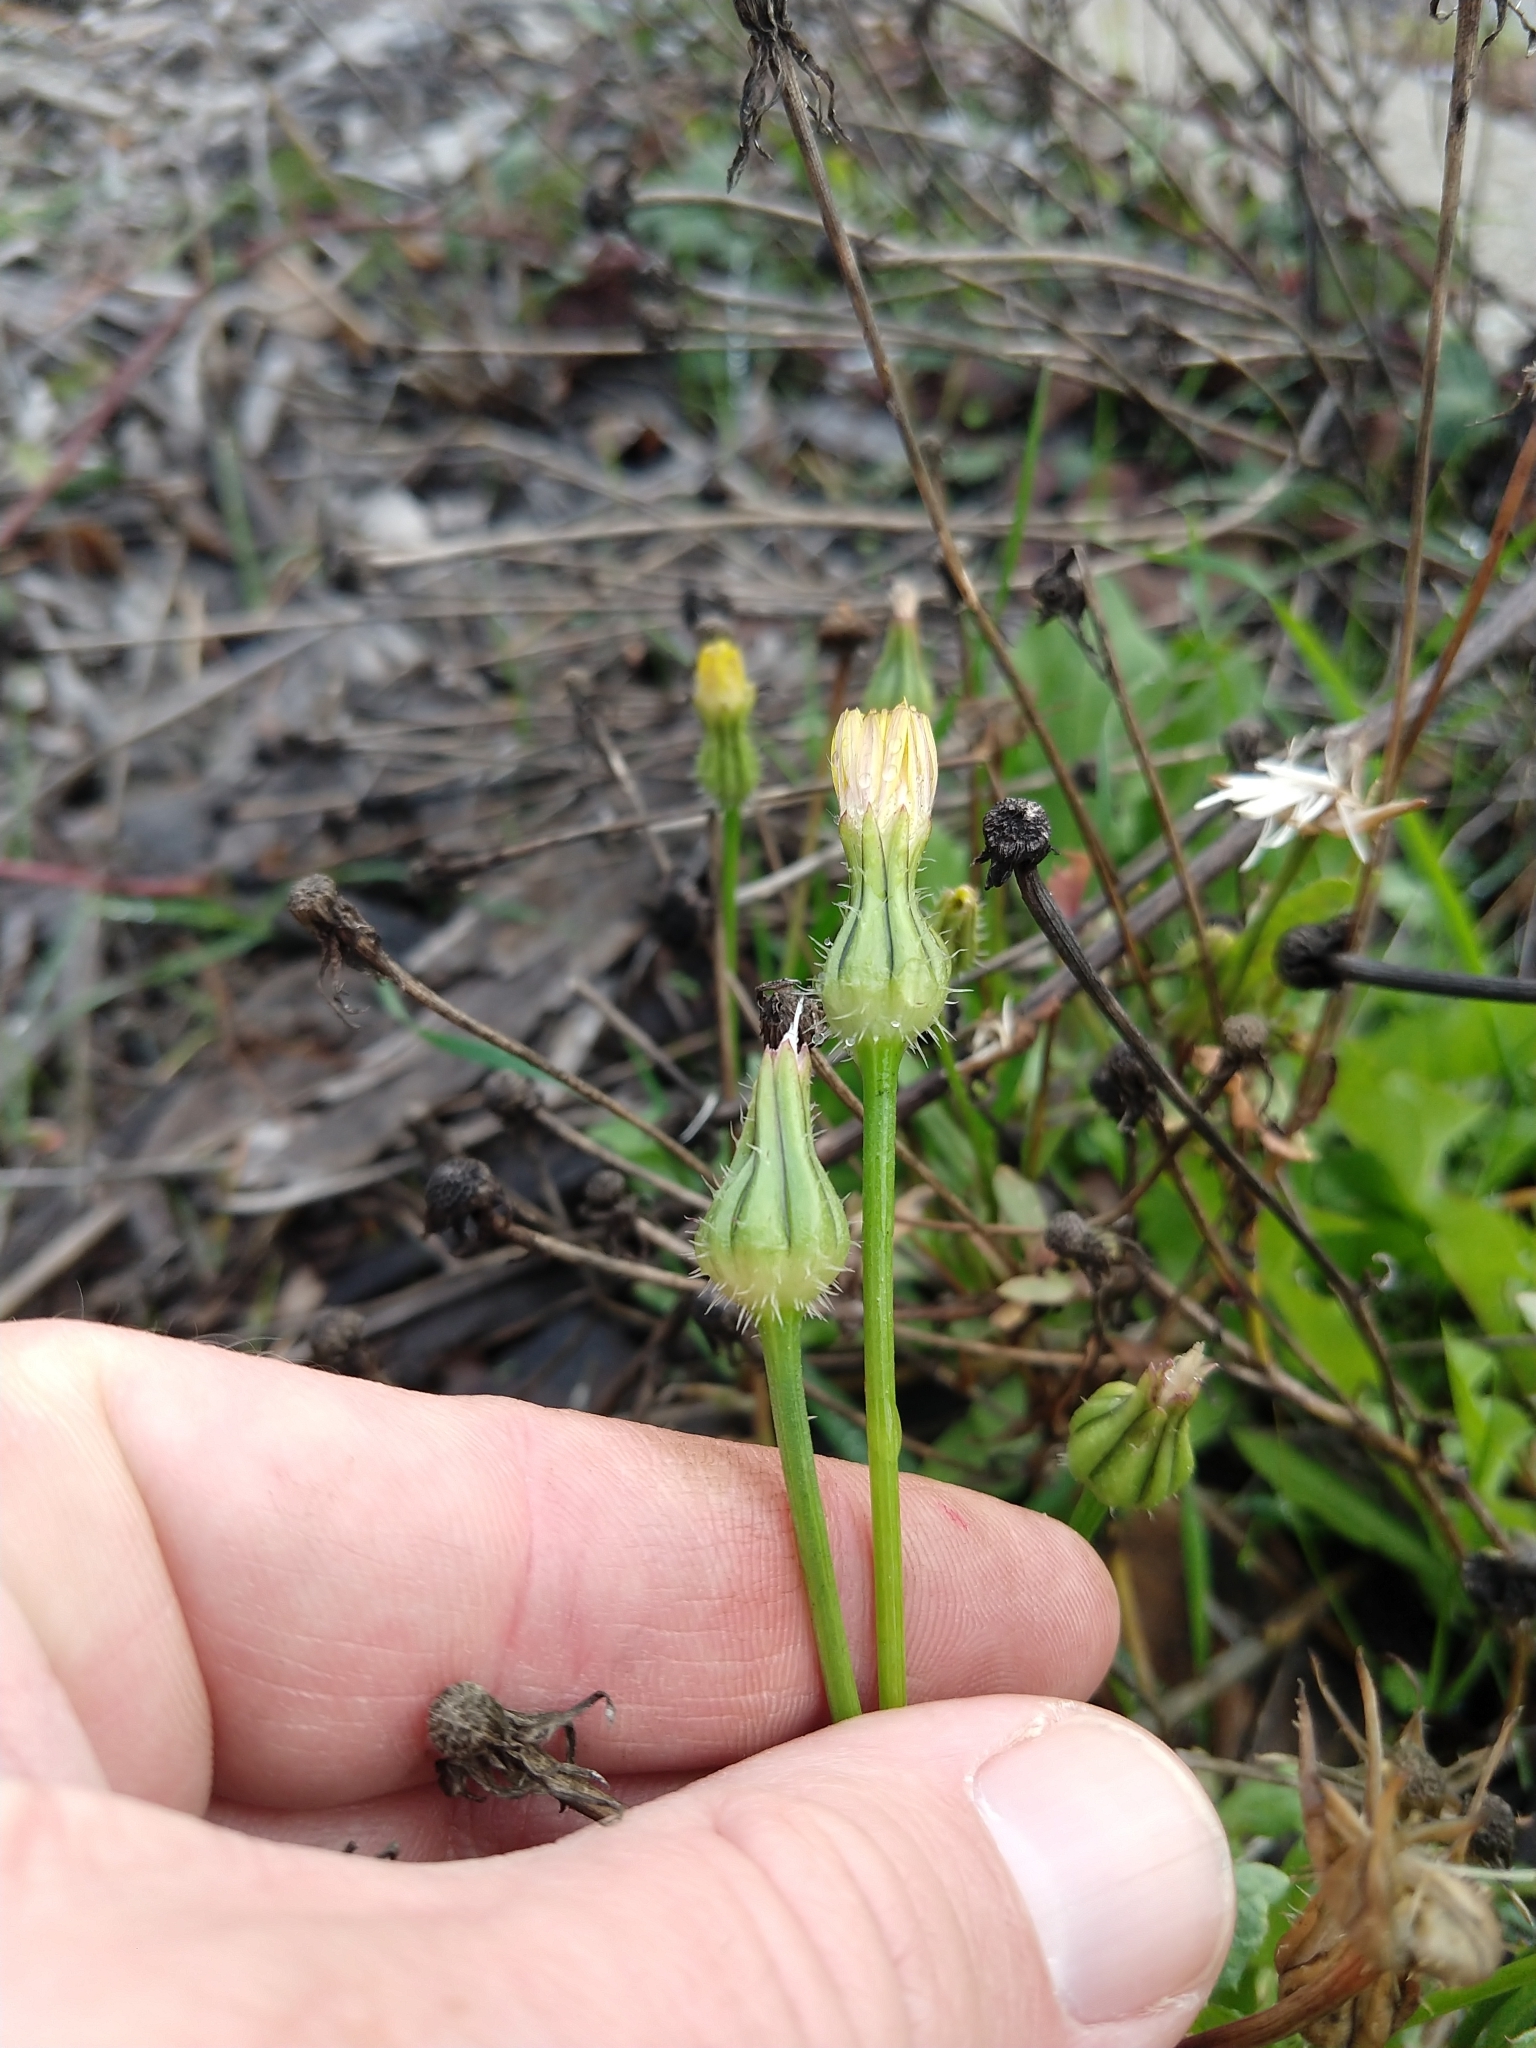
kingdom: Plantae
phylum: Tracheophyta
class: Magnoliopsida
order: Asterales
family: Asteraceae
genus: Urospermum
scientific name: Urospermum picroides
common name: False hawkbit
